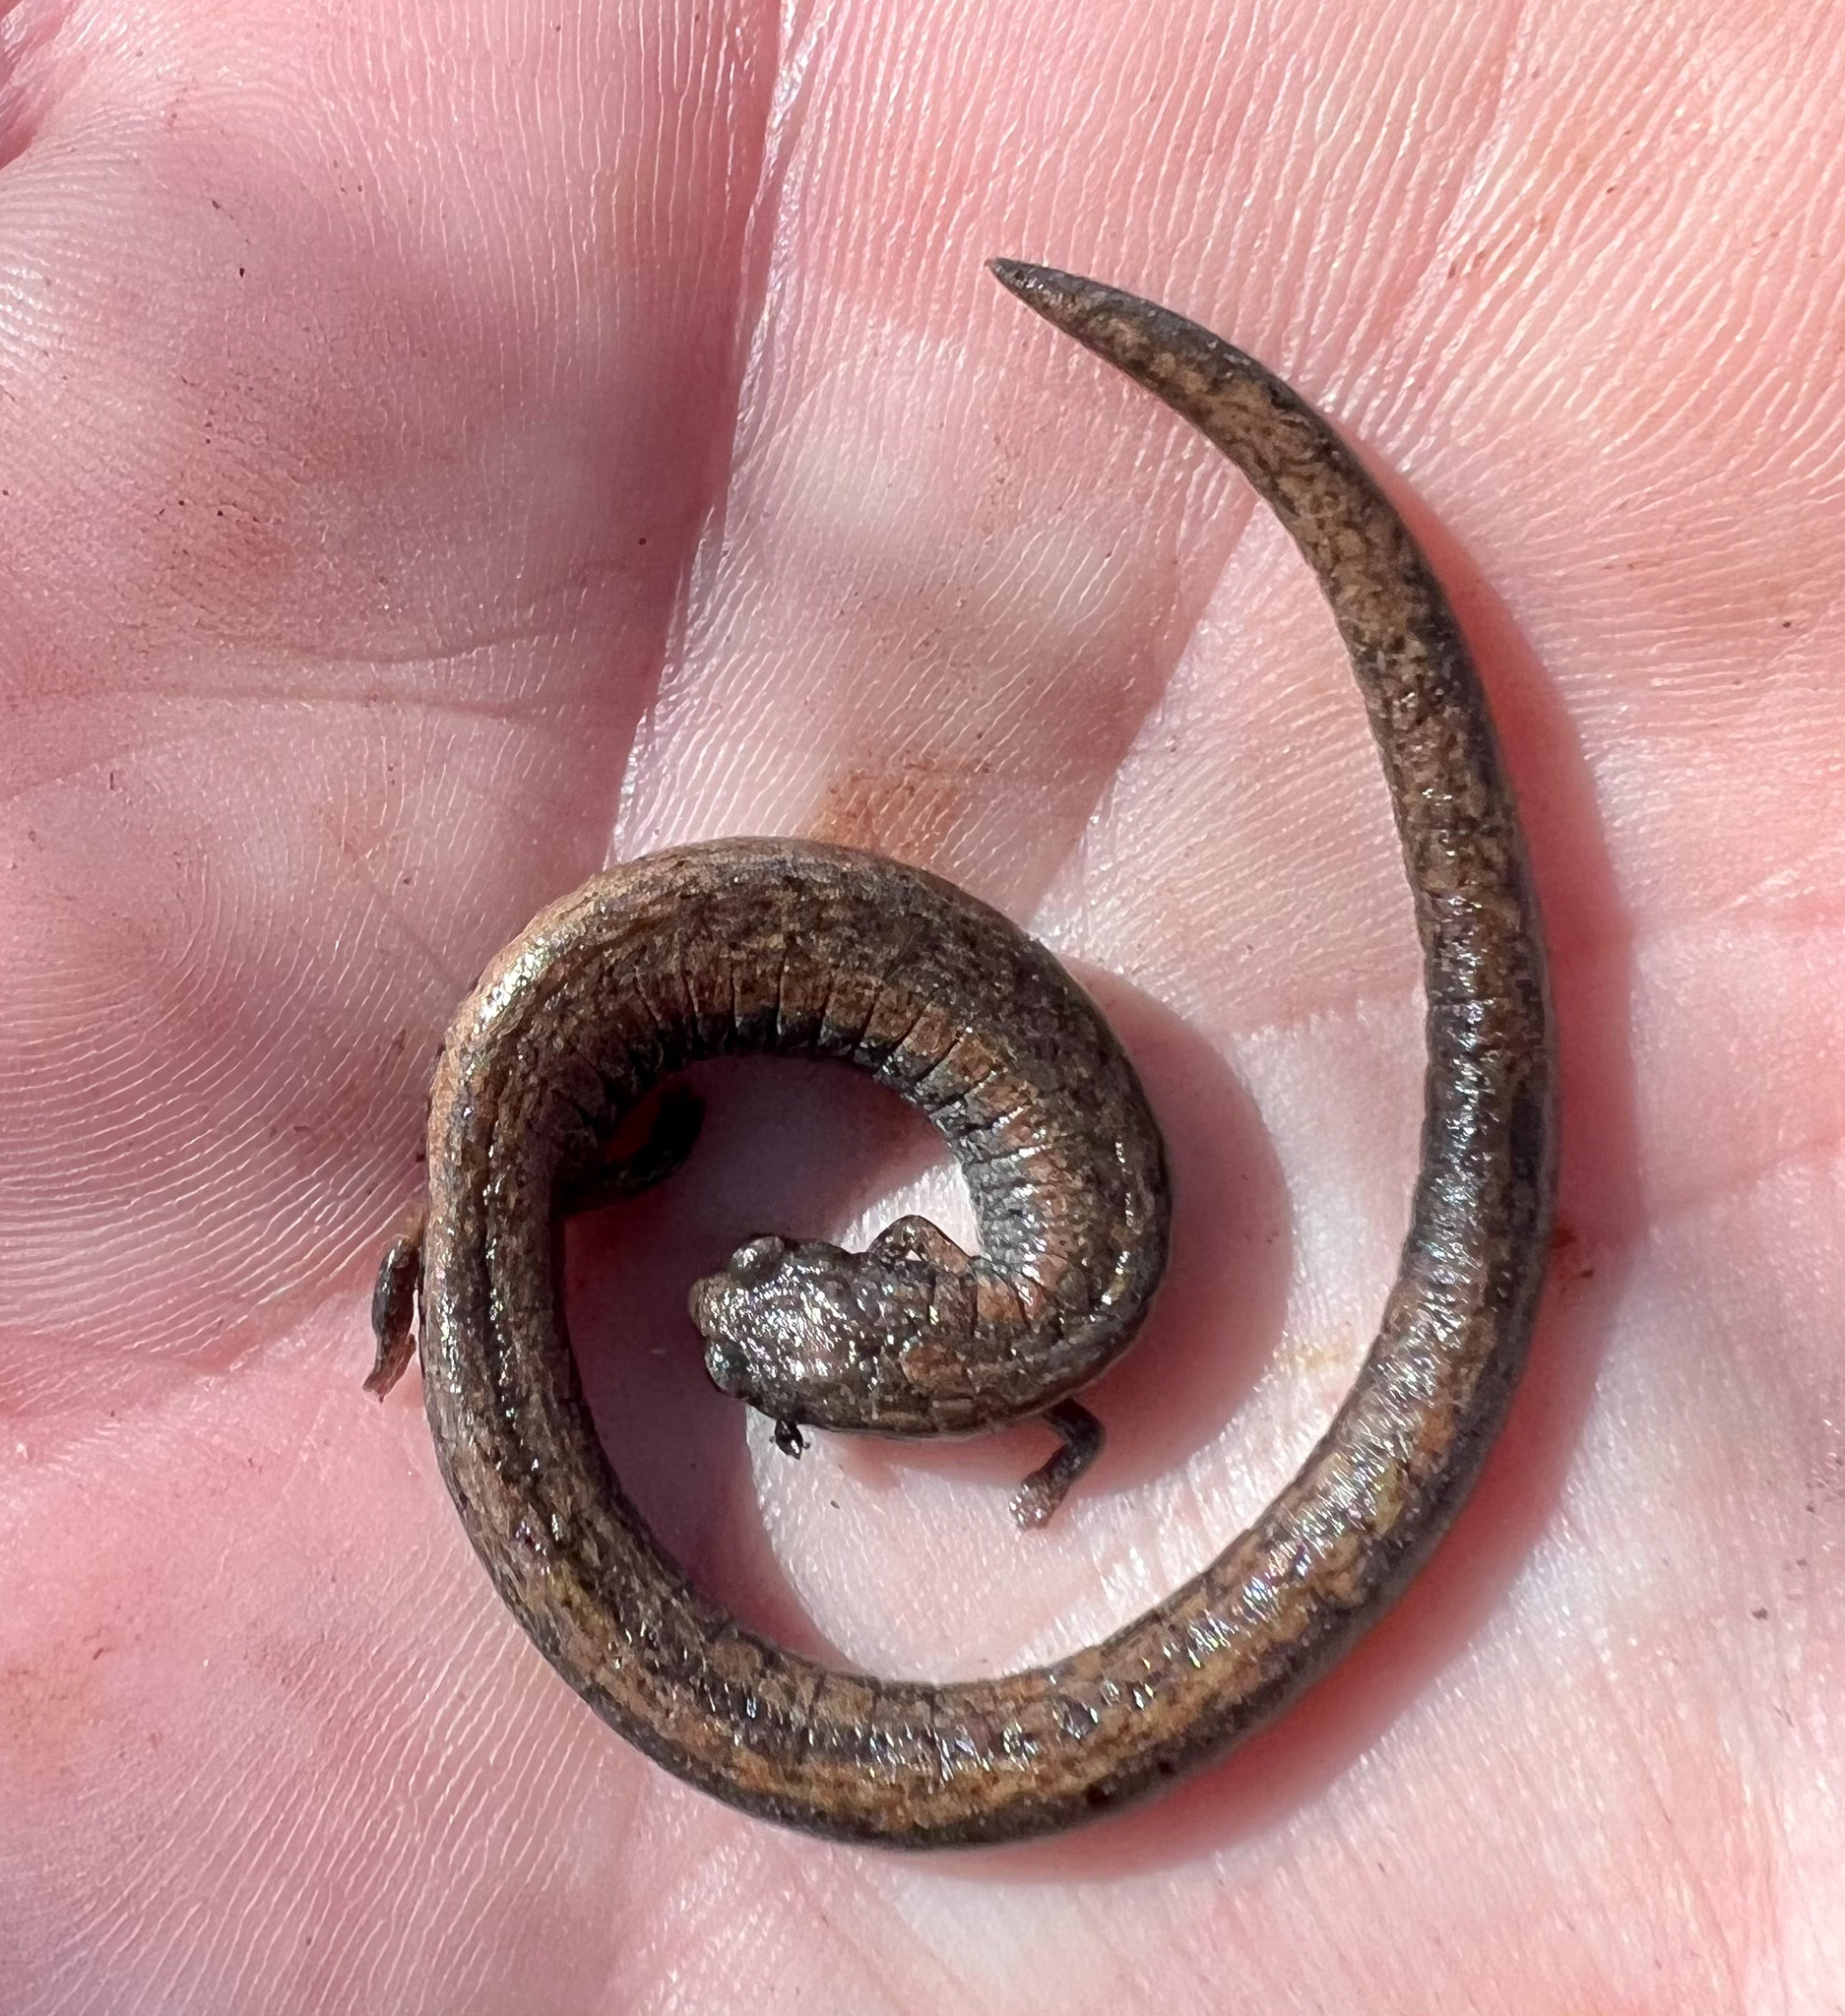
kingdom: Animalia
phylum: Chordata
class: Amphibia
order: Caudata
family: Plethodontidae
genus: Batrachoseps
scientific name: Batrachoseps attenuatus
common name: California slender salamander
